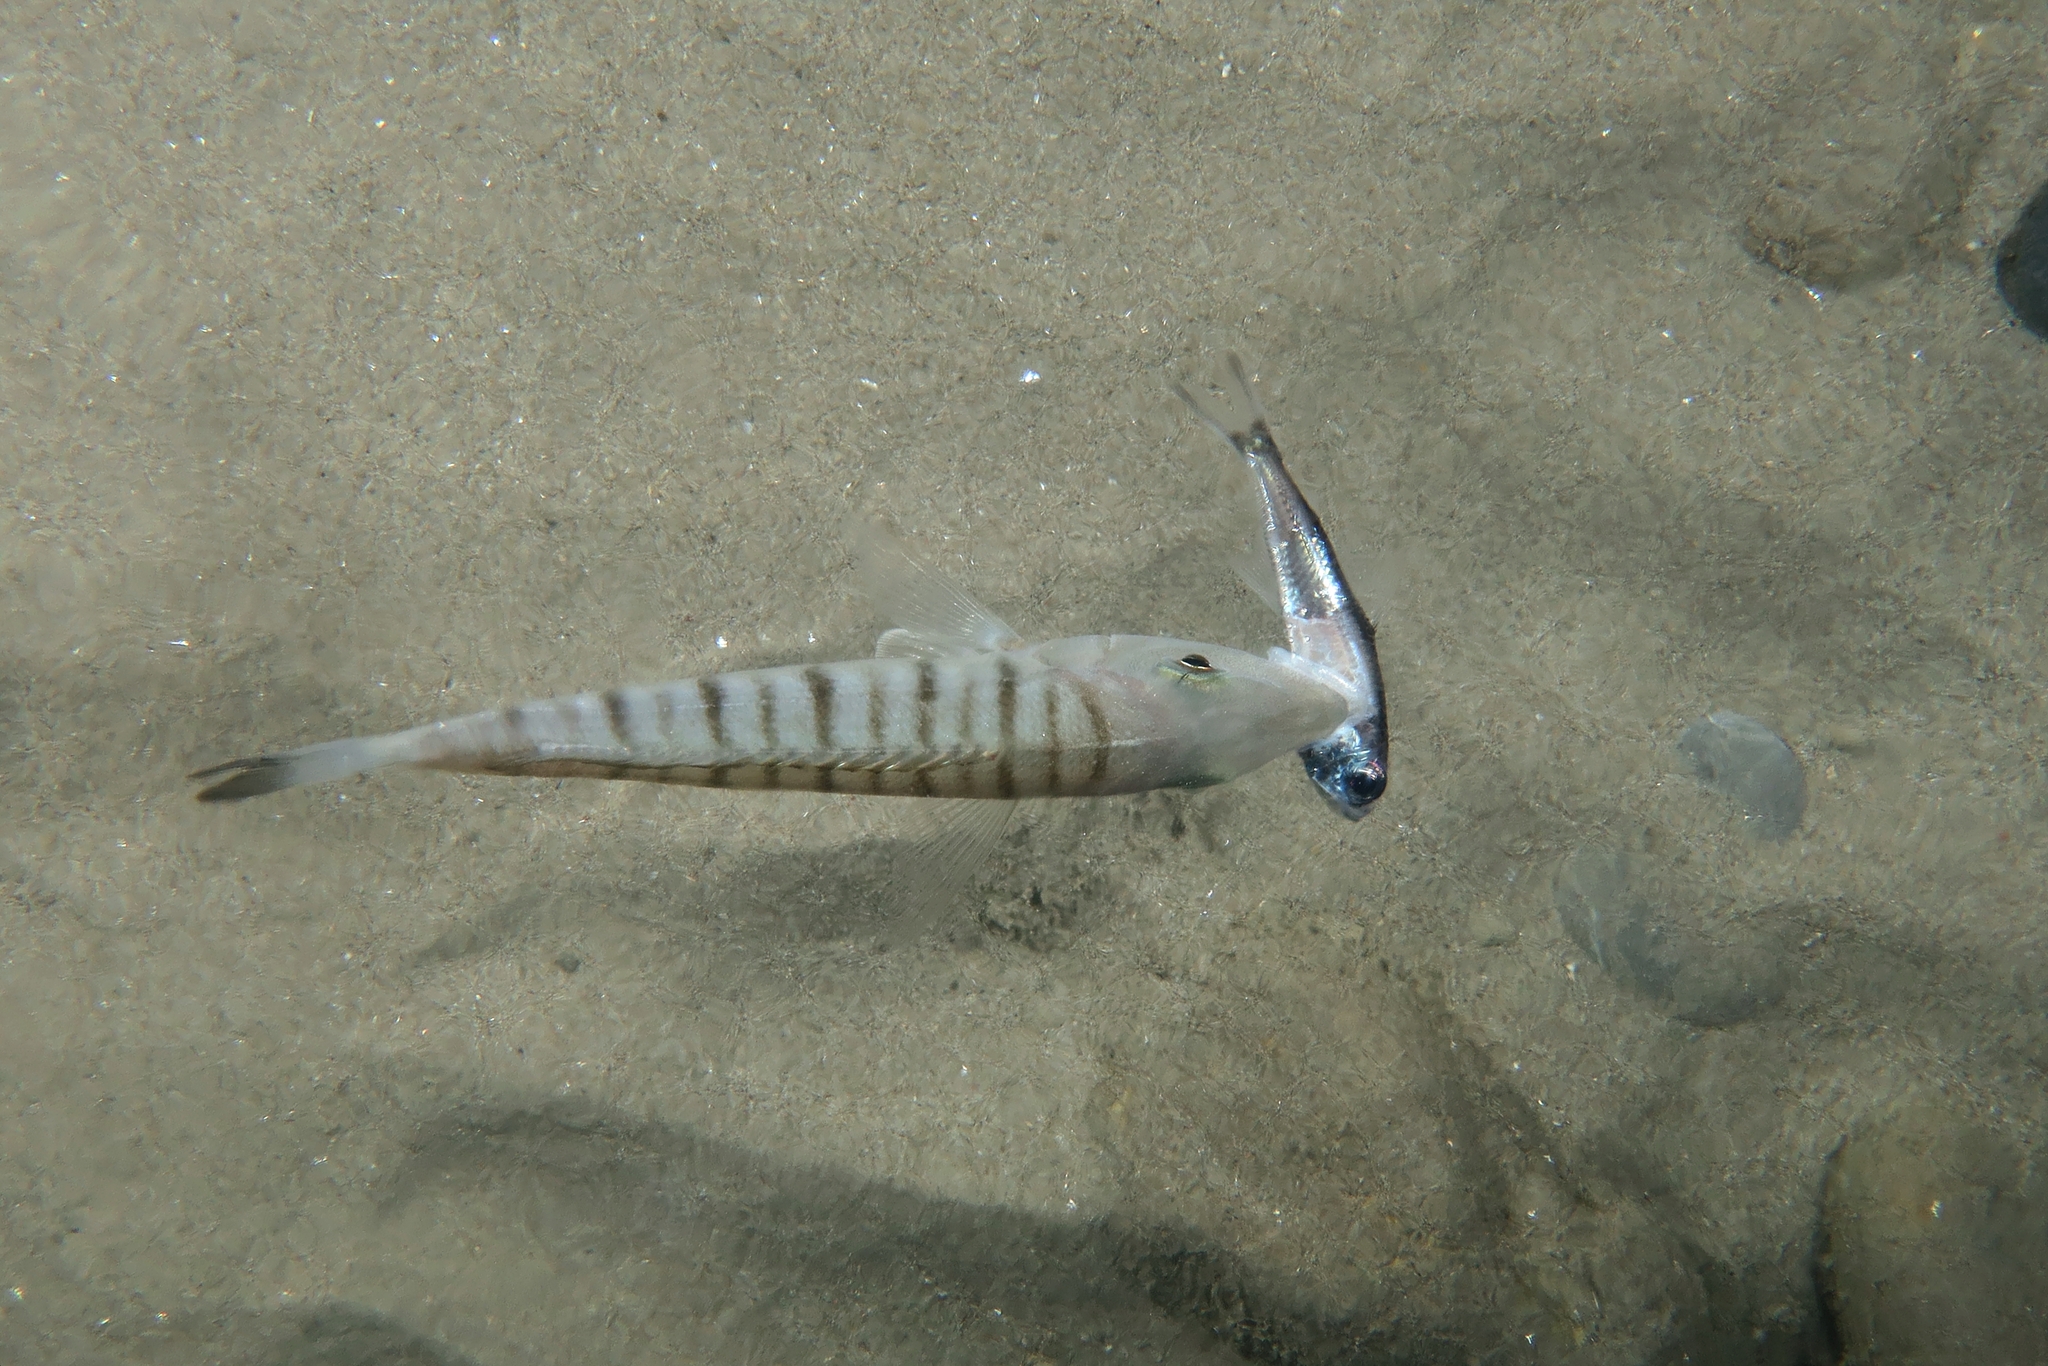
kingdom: Animalia
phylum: Chordata
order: Myctophiformes
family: Myctophidae
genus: Hygophum
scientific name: Hygophum benoiti
